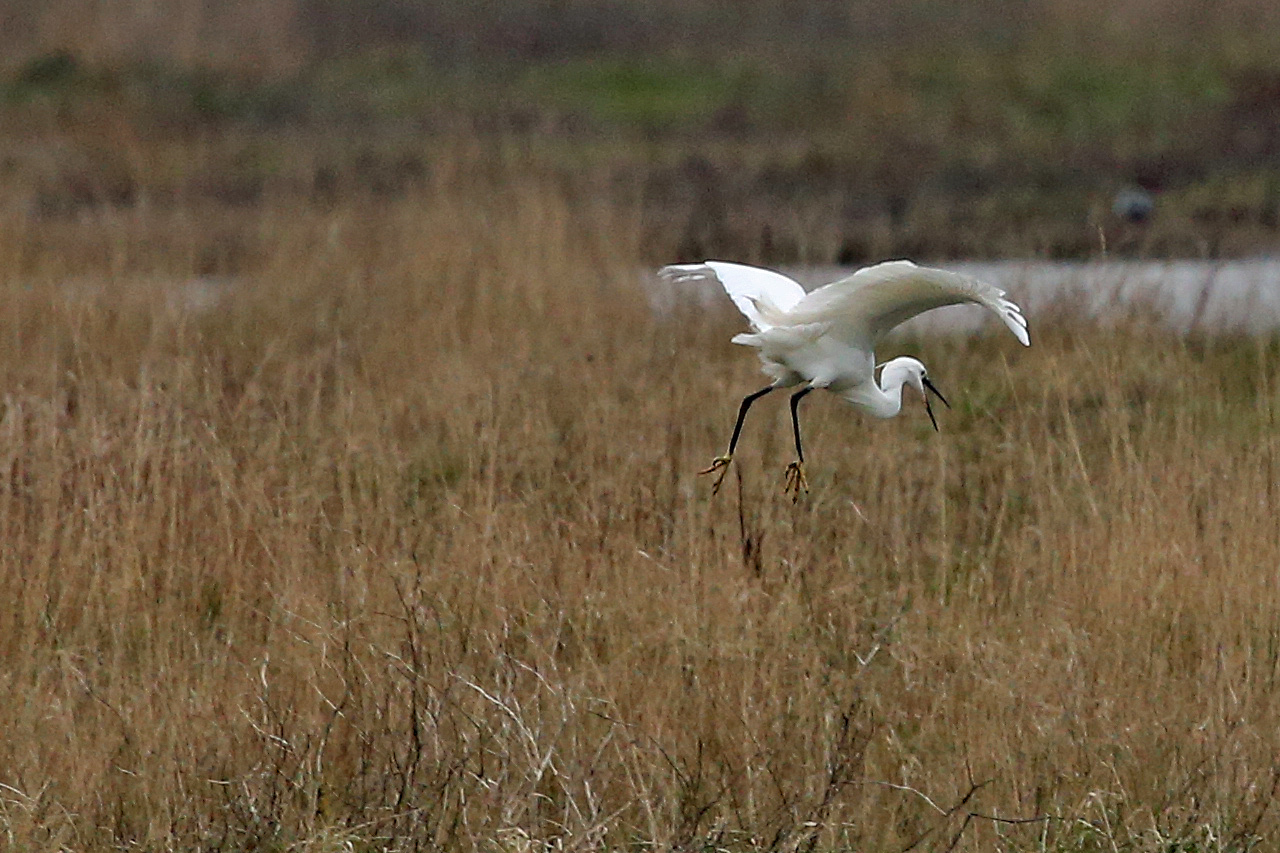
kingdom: Animalia
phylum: Chordata
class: Aves
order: Pelecaniformes
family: Ardeidae
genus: Egretta
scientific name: Egretta garzetta
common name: Little egret
